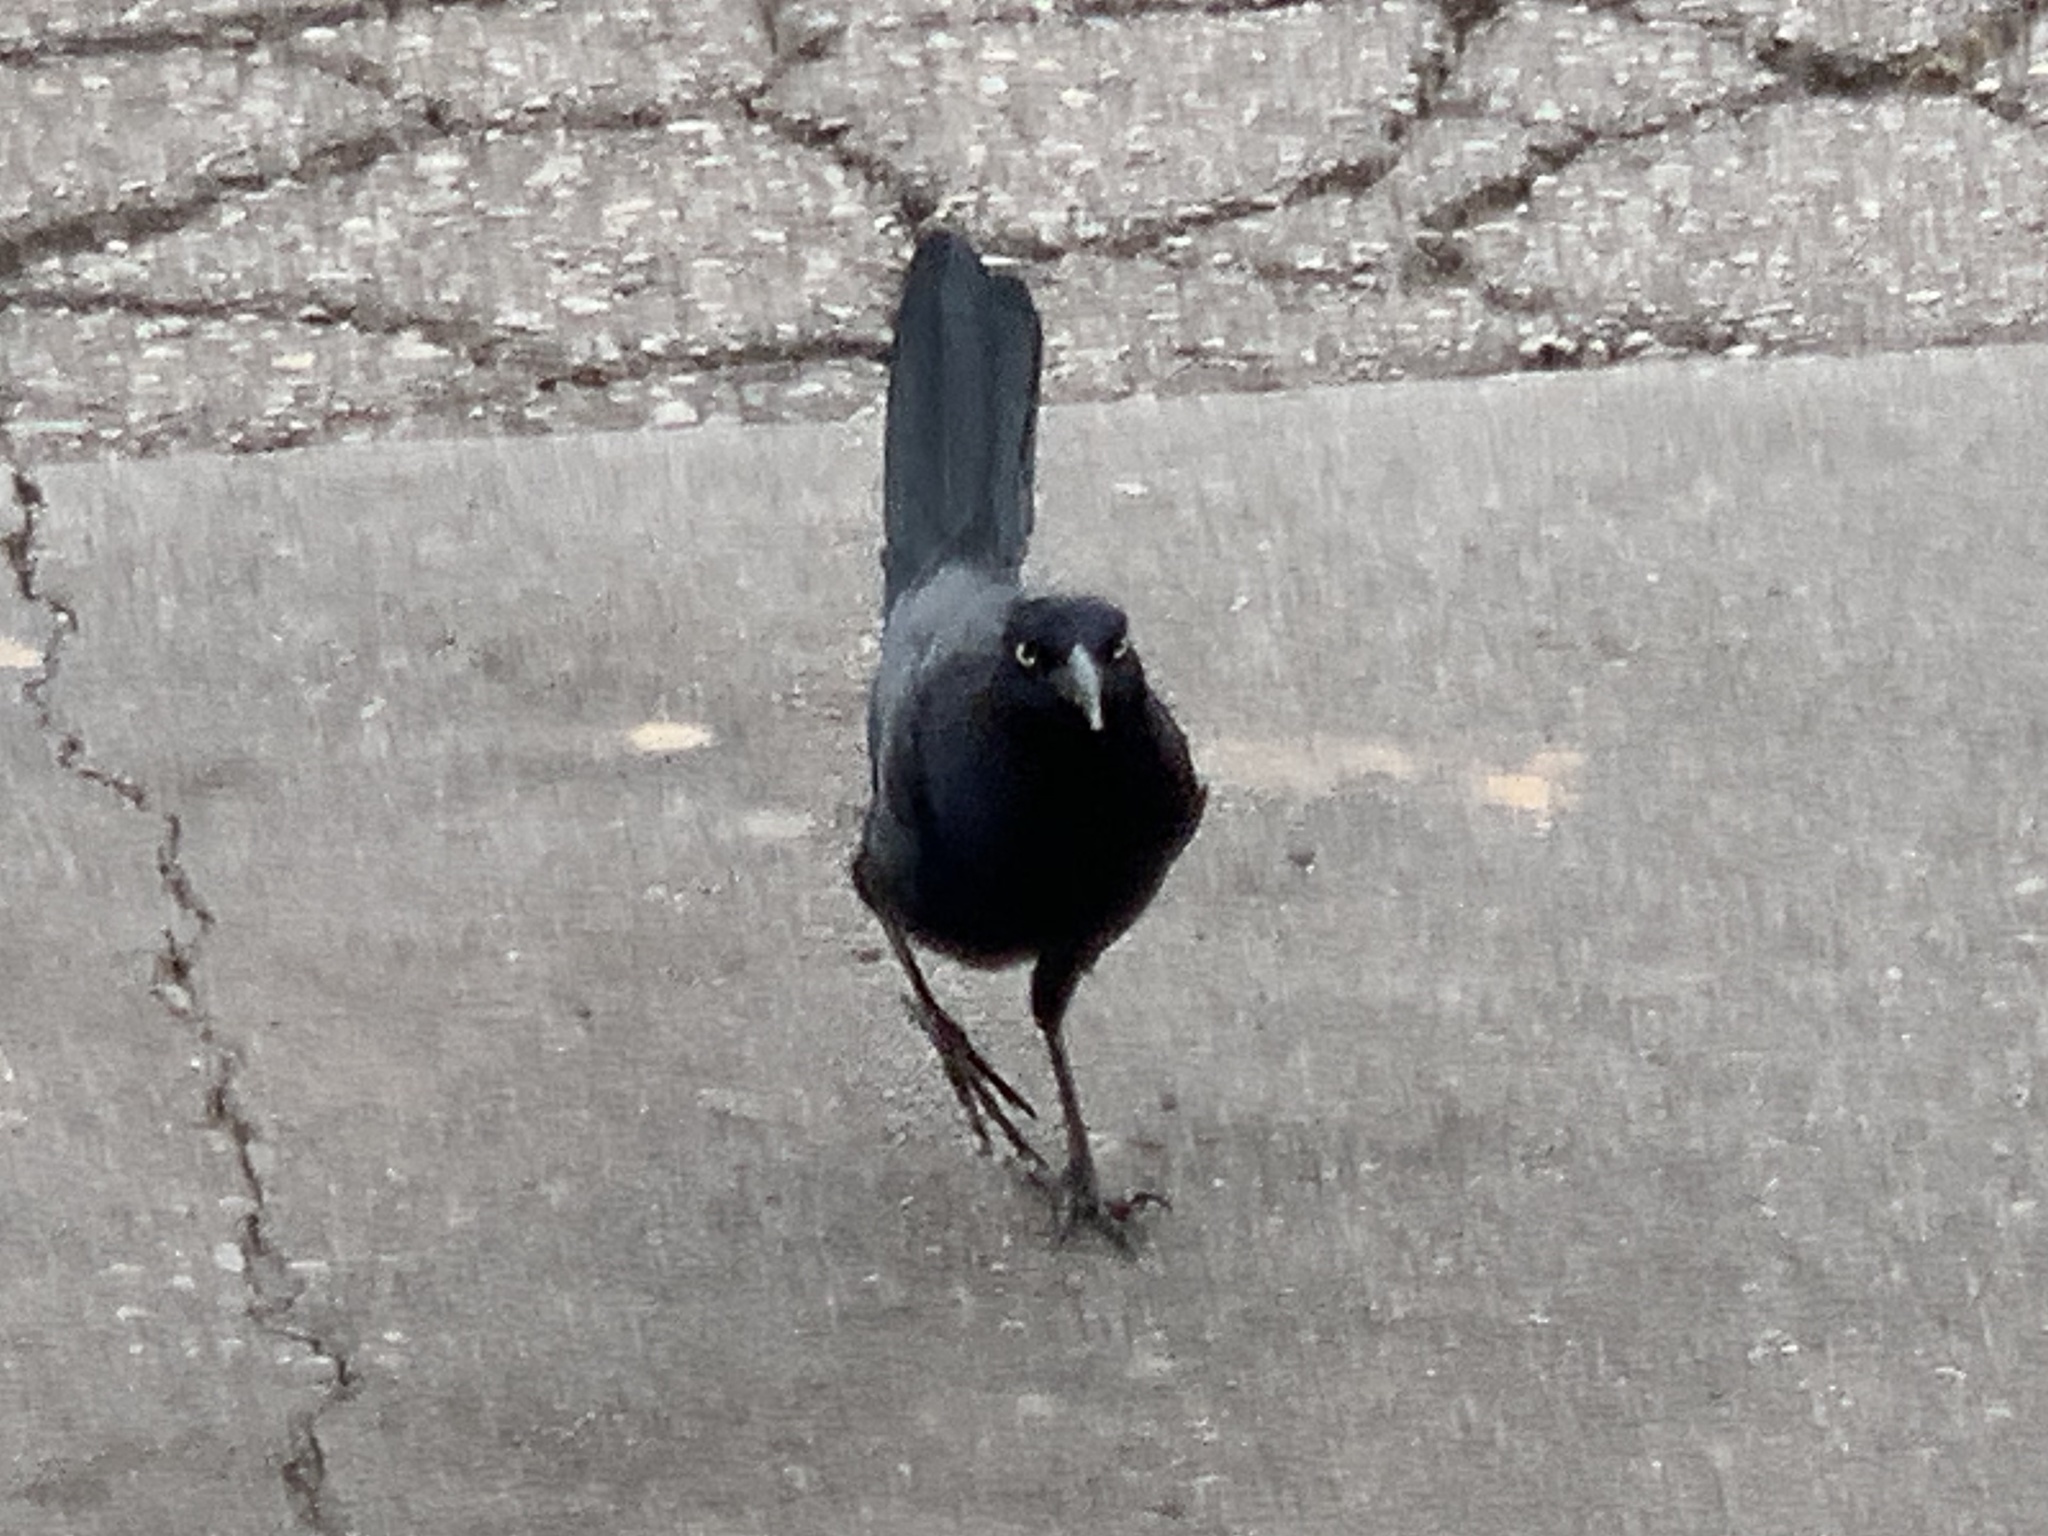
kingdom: Animalia
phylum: Chordata
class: Aves
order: Passeriformes
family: Icteridae
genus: Quiscalus
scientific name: Quiscalus mexicanus
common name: Great-tailed grackle
